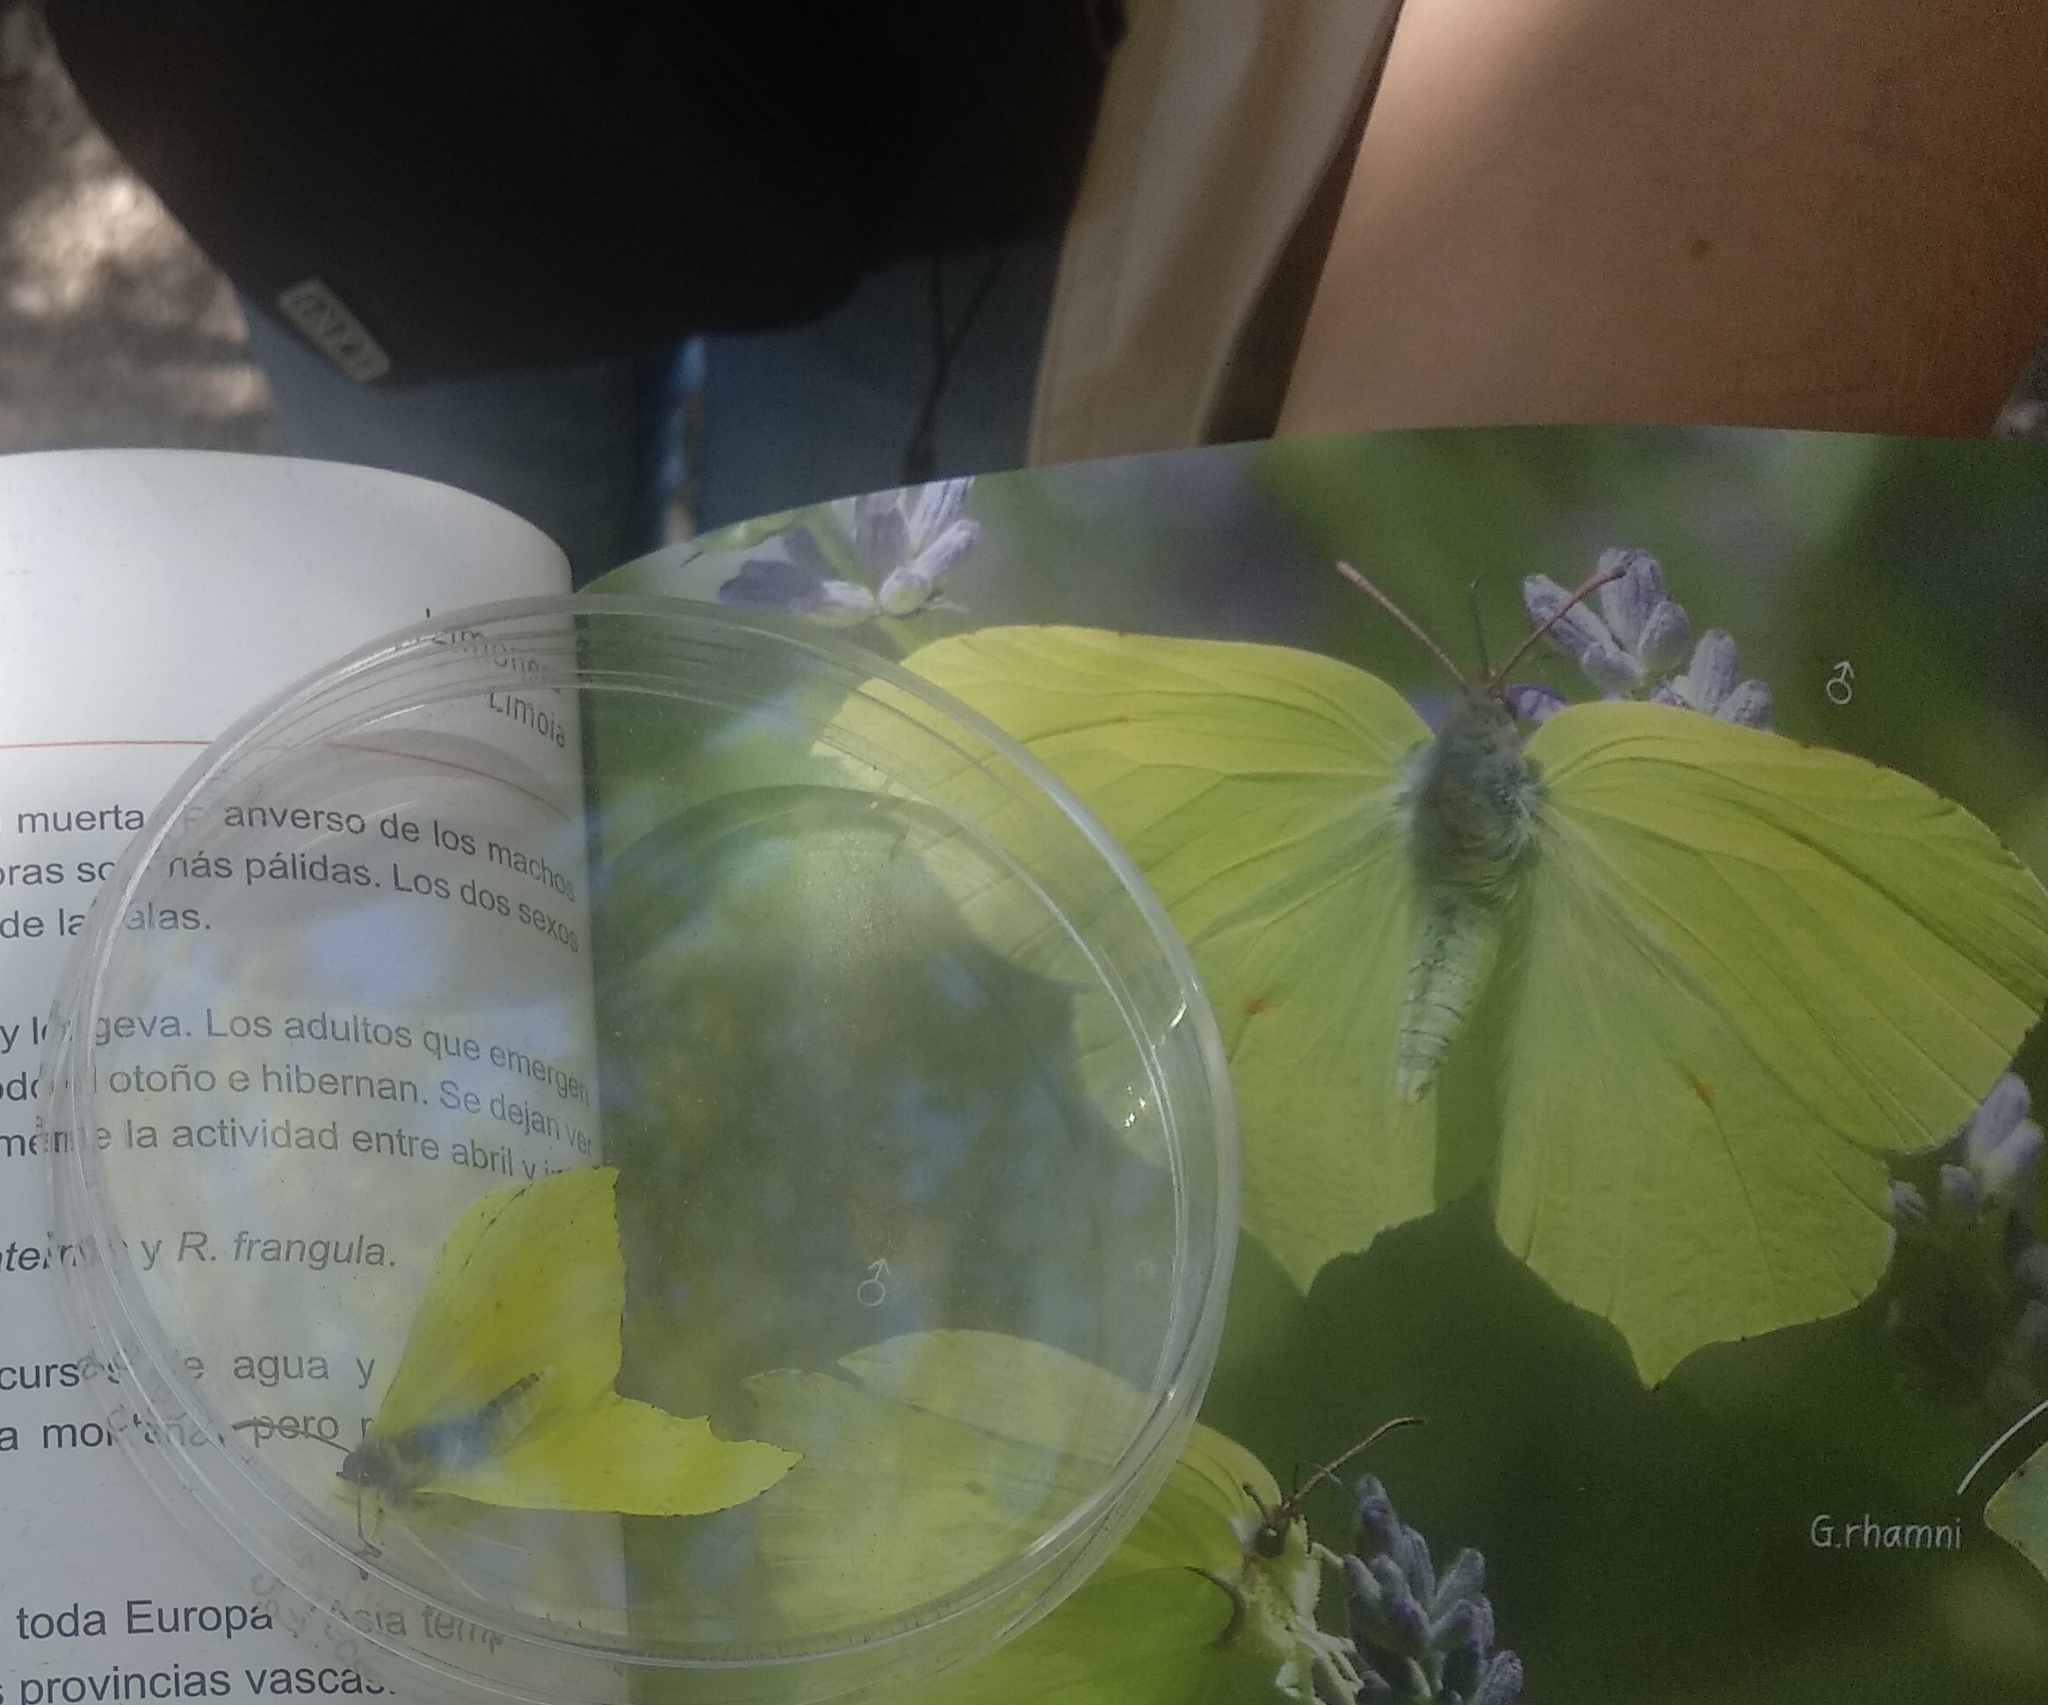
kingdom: Animalia
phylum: Arthropoda
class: Insecta
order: Lepidoptera
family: Pieridae
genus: Gonepteryx
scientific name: Gonepteryx rhamni
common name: Brimstone
